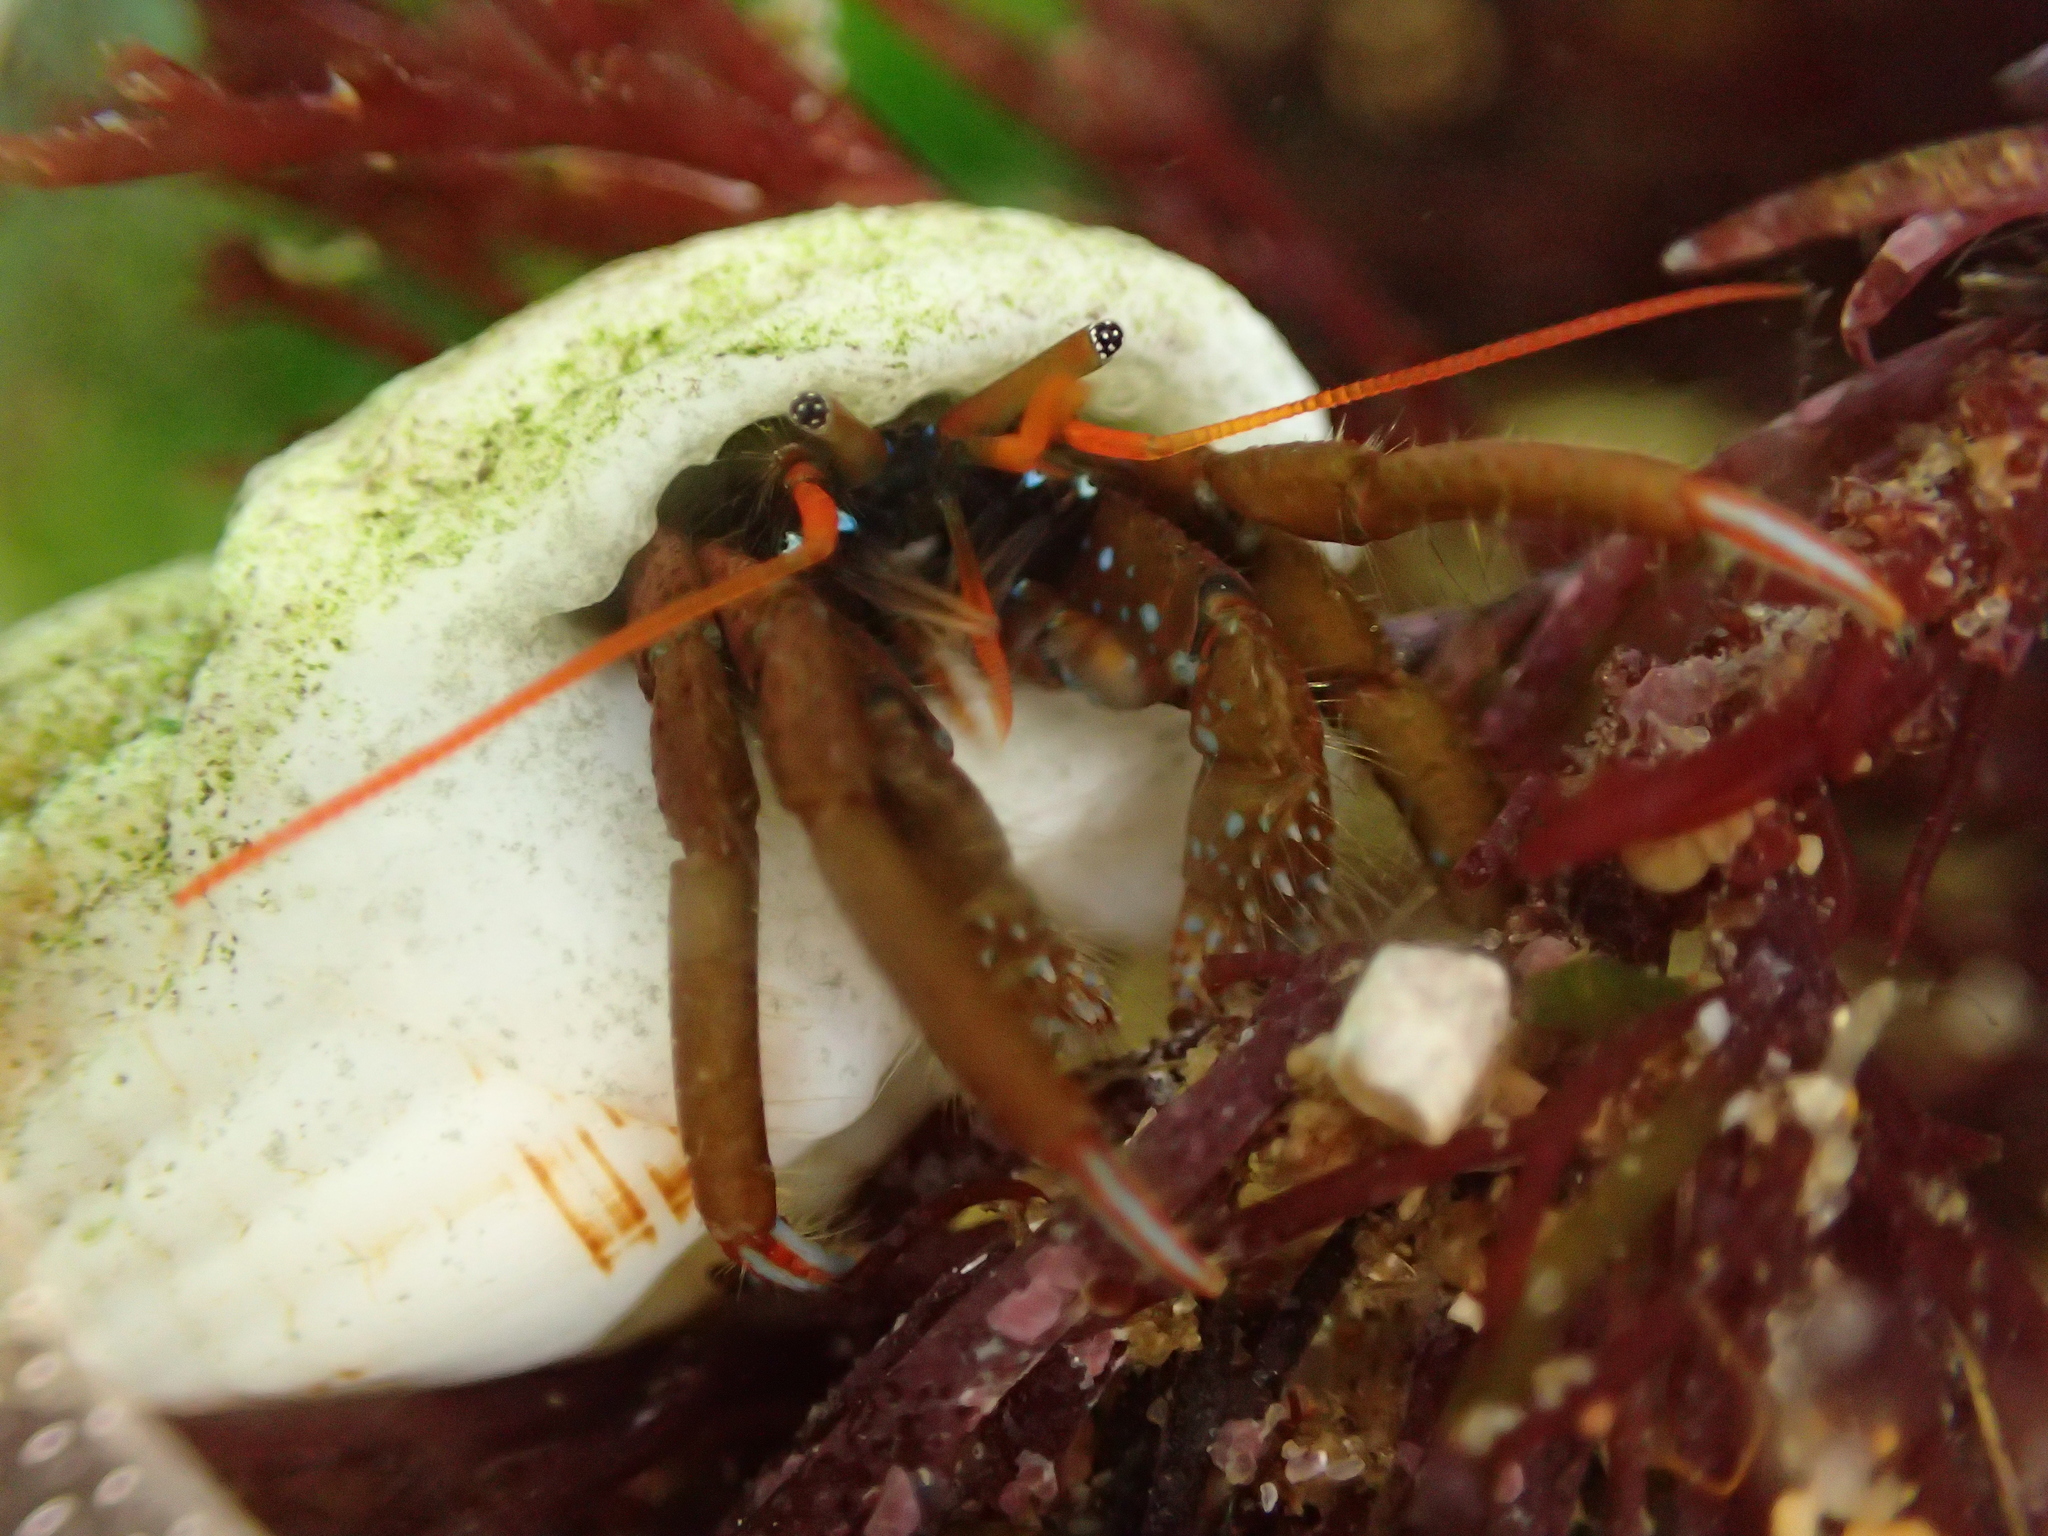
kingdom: Animalia
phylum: Arthropoda
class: Malacostraca
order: Decapoda
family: Diogenidae
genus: Clibanarius
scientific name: Clibanarius erythropus
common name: Hermit crab
